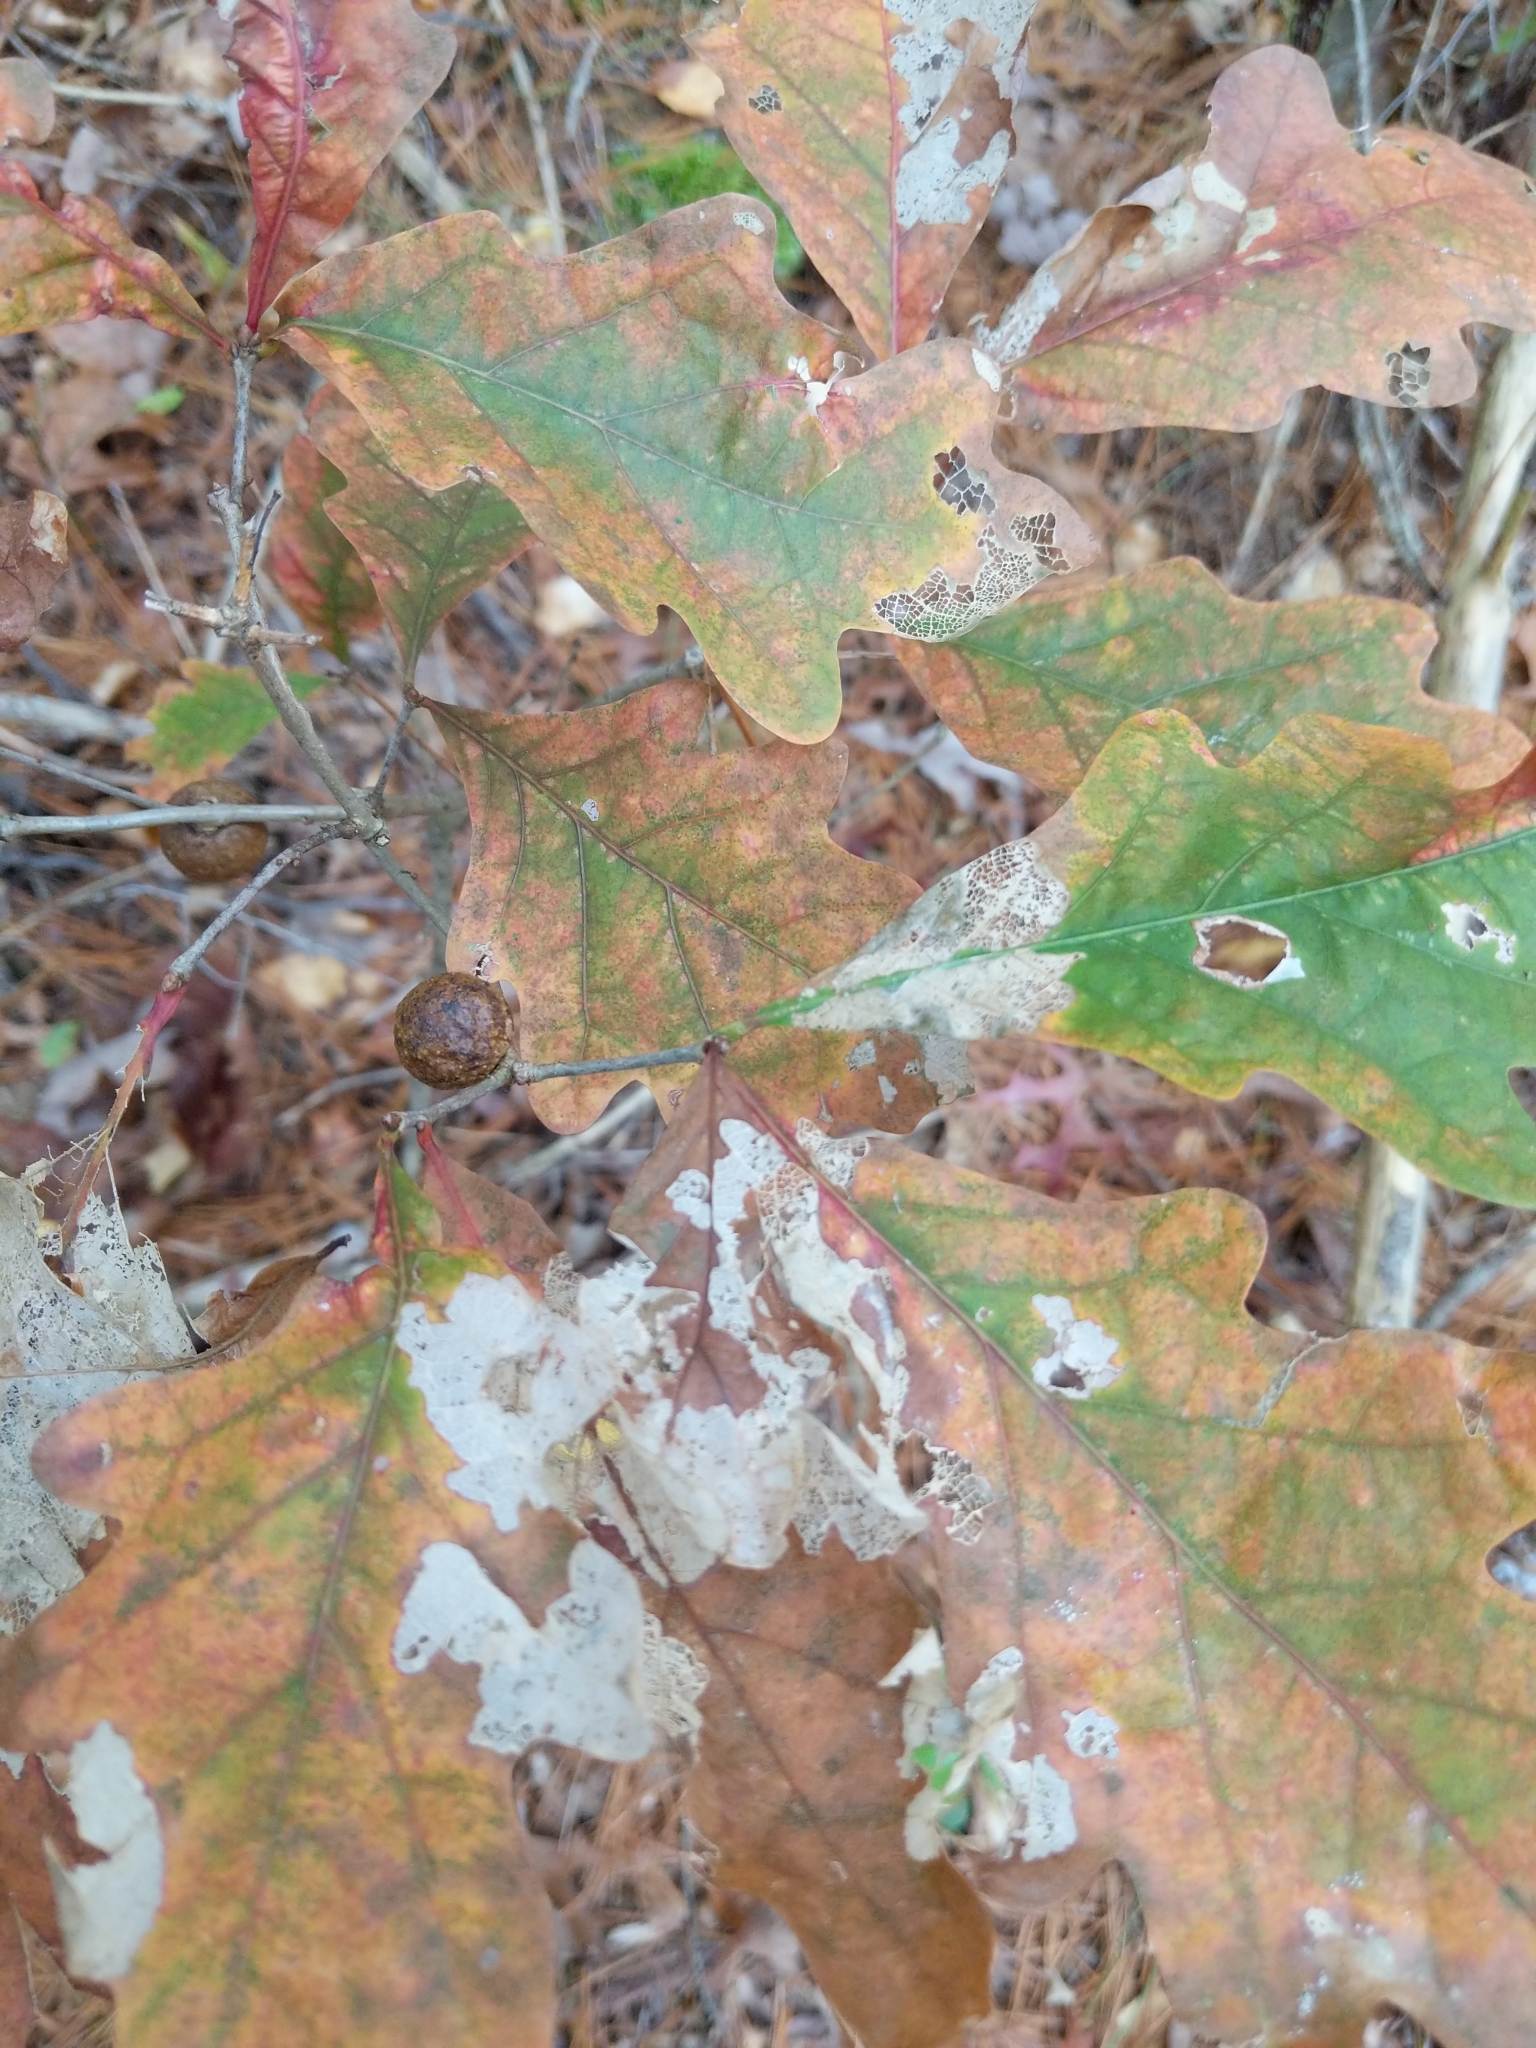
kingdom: Animalia
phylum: Arthropoda
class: Insecta
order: Hymenoptera
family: Cynipidae
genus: Disholcaspis
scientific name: Disholcaspis quercusglobulus
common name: Round bullet gall wasp
